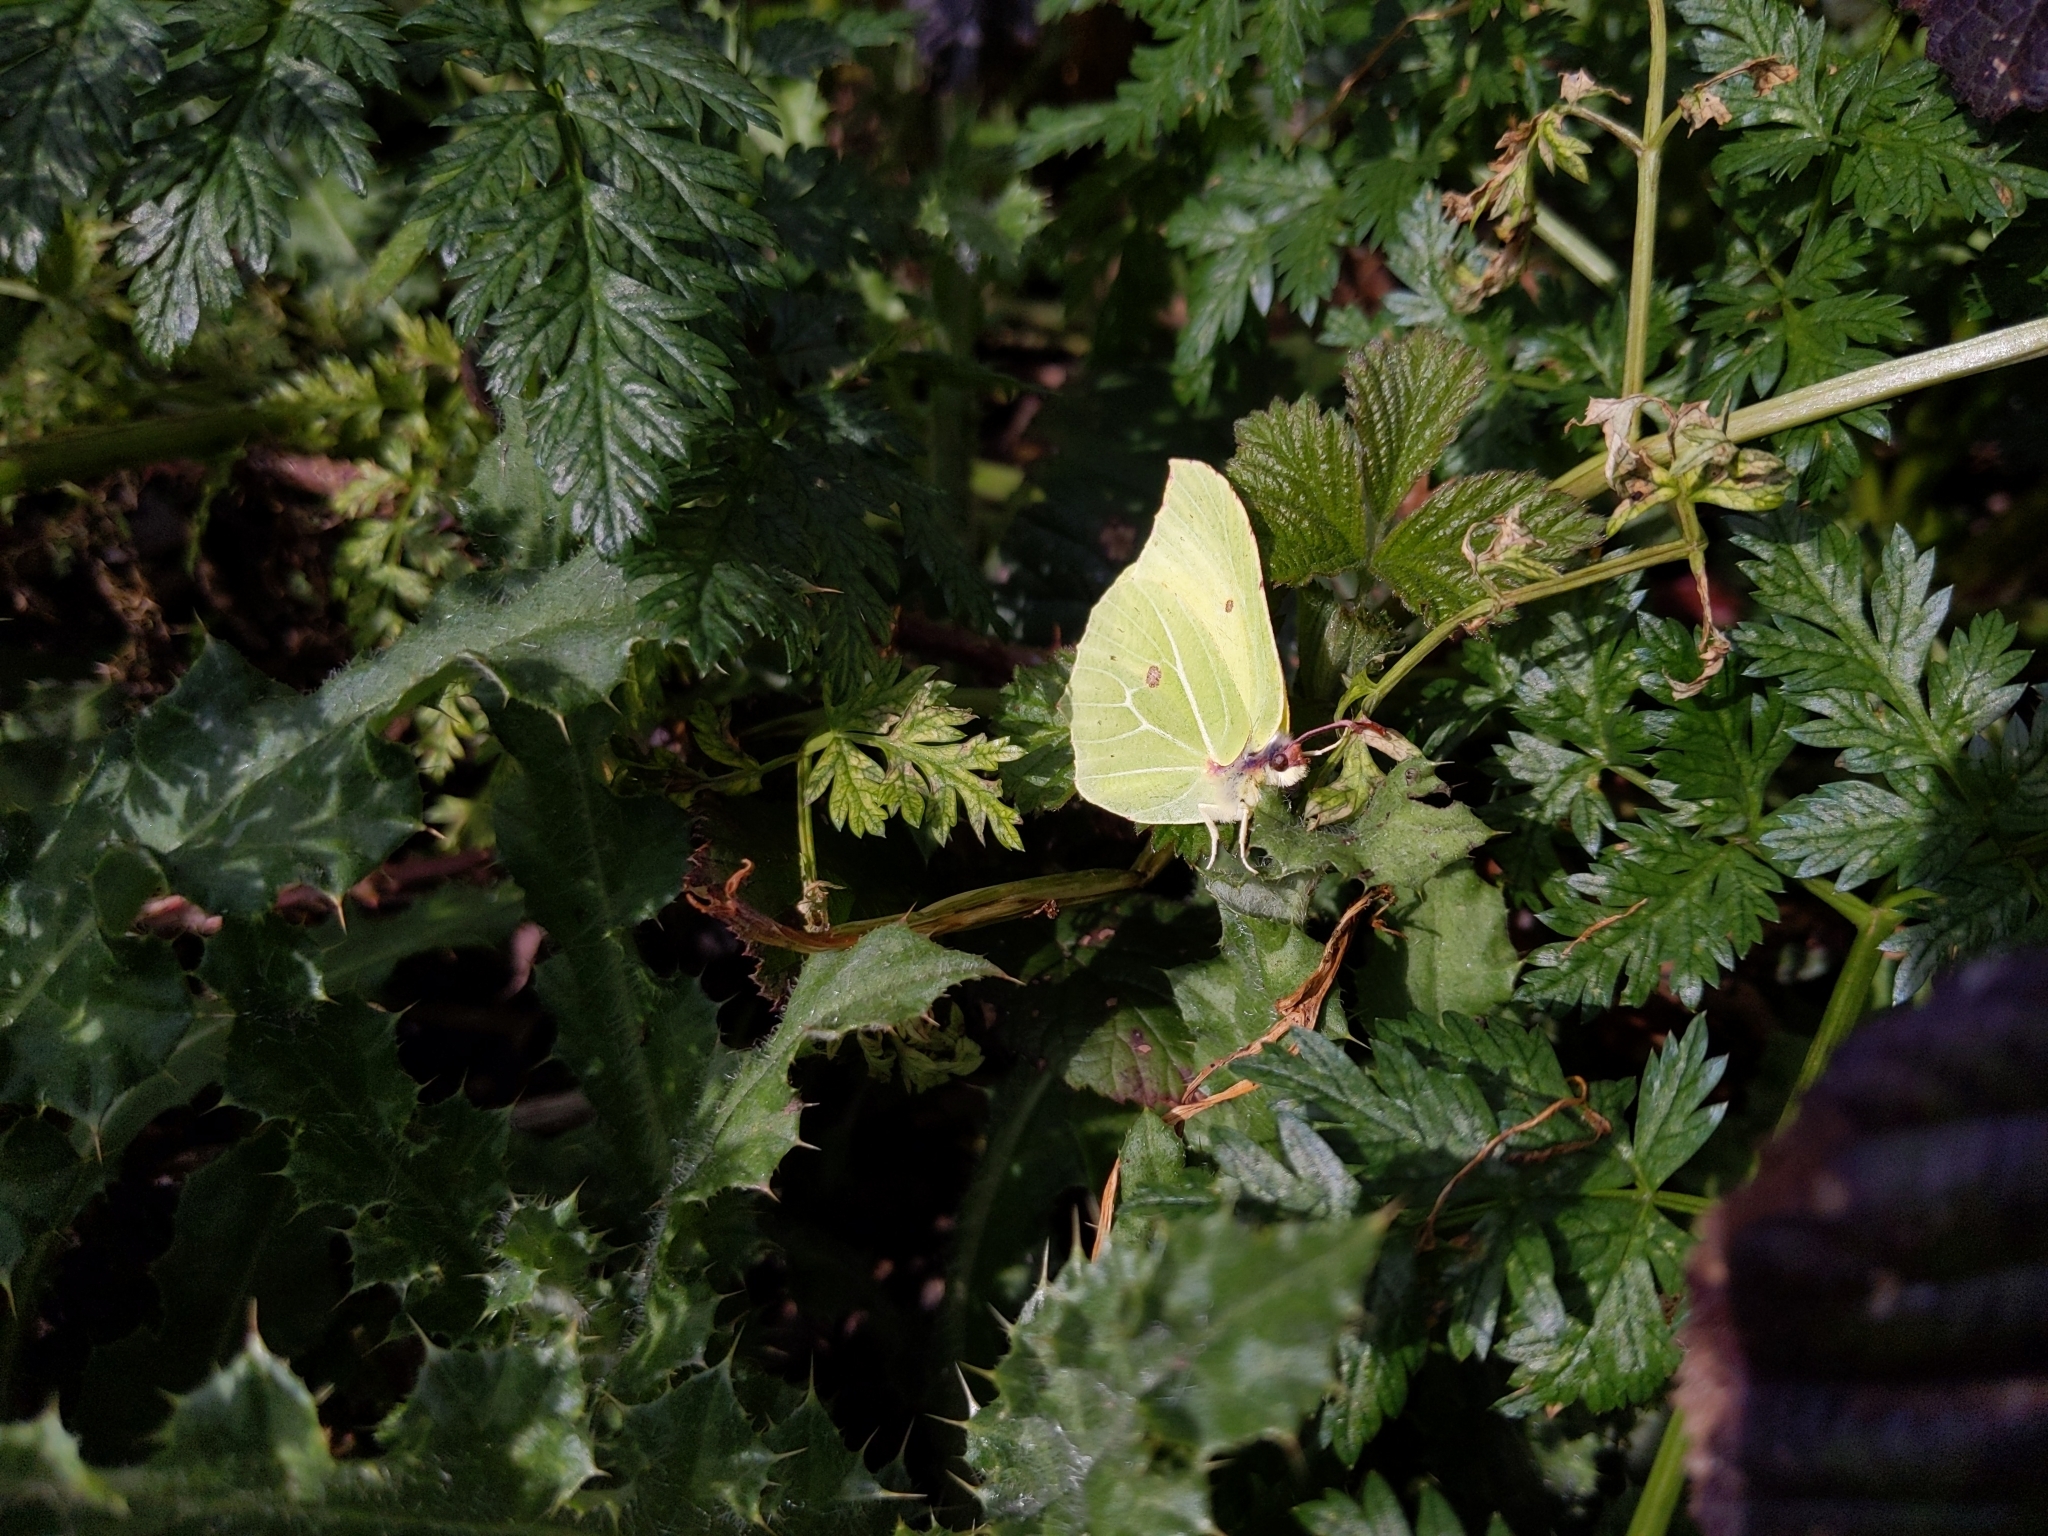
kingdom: Animalia
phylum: Arthropoda
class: Insecta
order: Lepidoptera
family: Pieridae
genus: Gonepteryx
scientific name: Gonepteryx rhamni
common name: Brimstone
